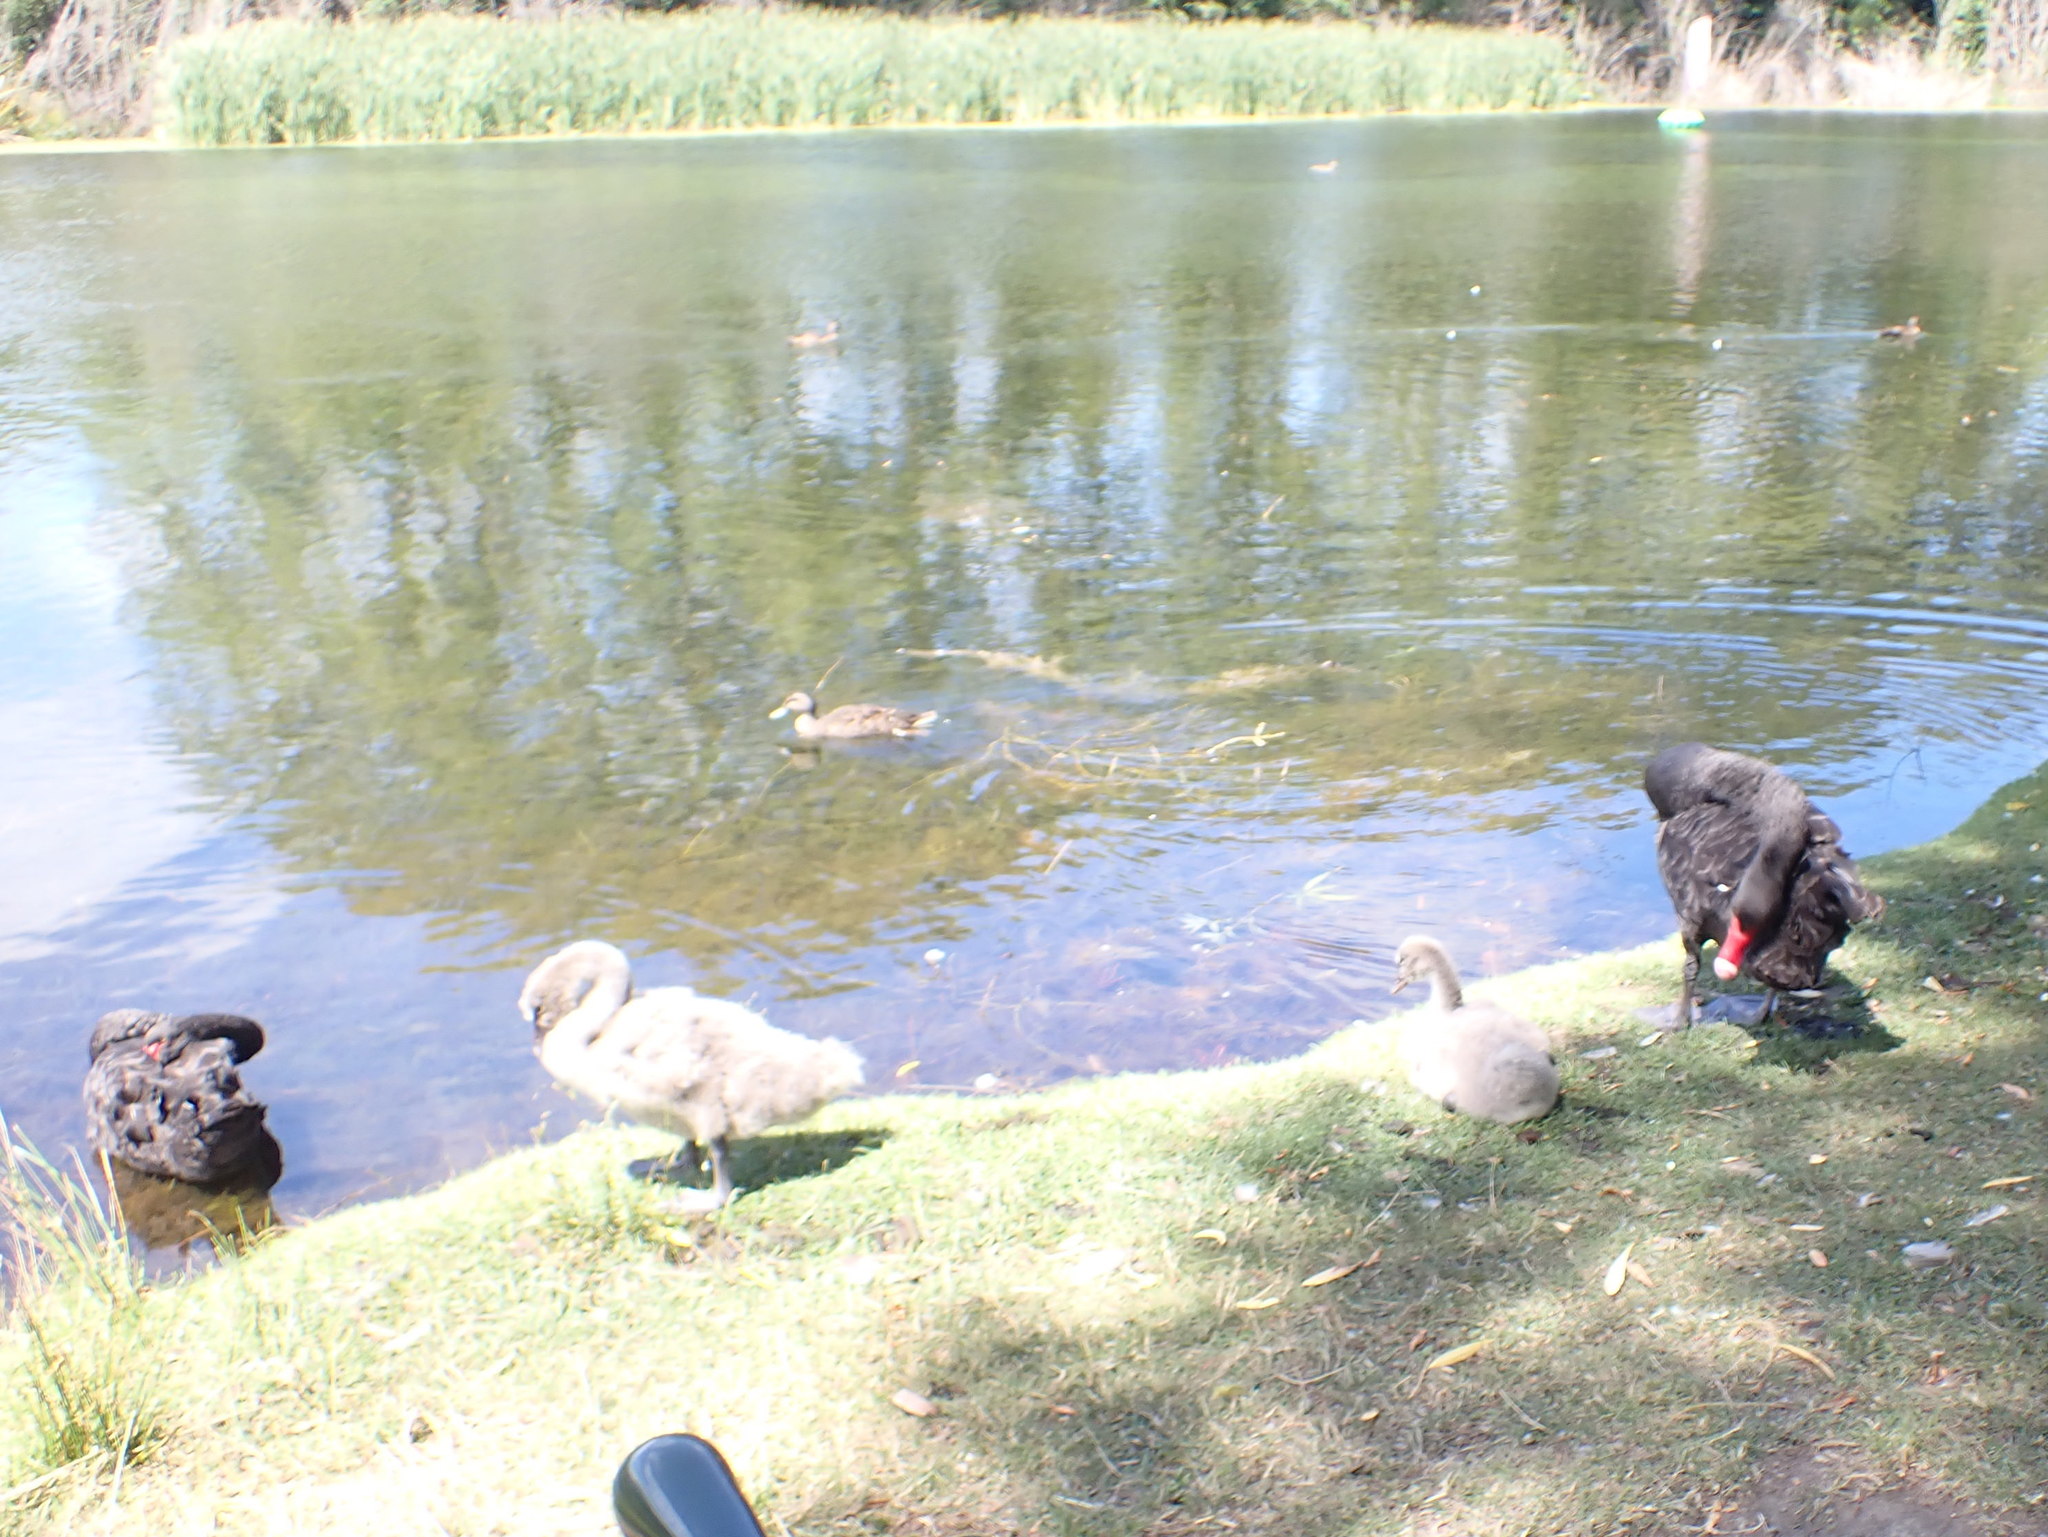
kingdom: Animalia
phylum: Chordata
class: Aves
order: Anseriformes
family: Anatidae
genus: Cygnus
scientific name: Cygnus atratus
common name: Black swan
